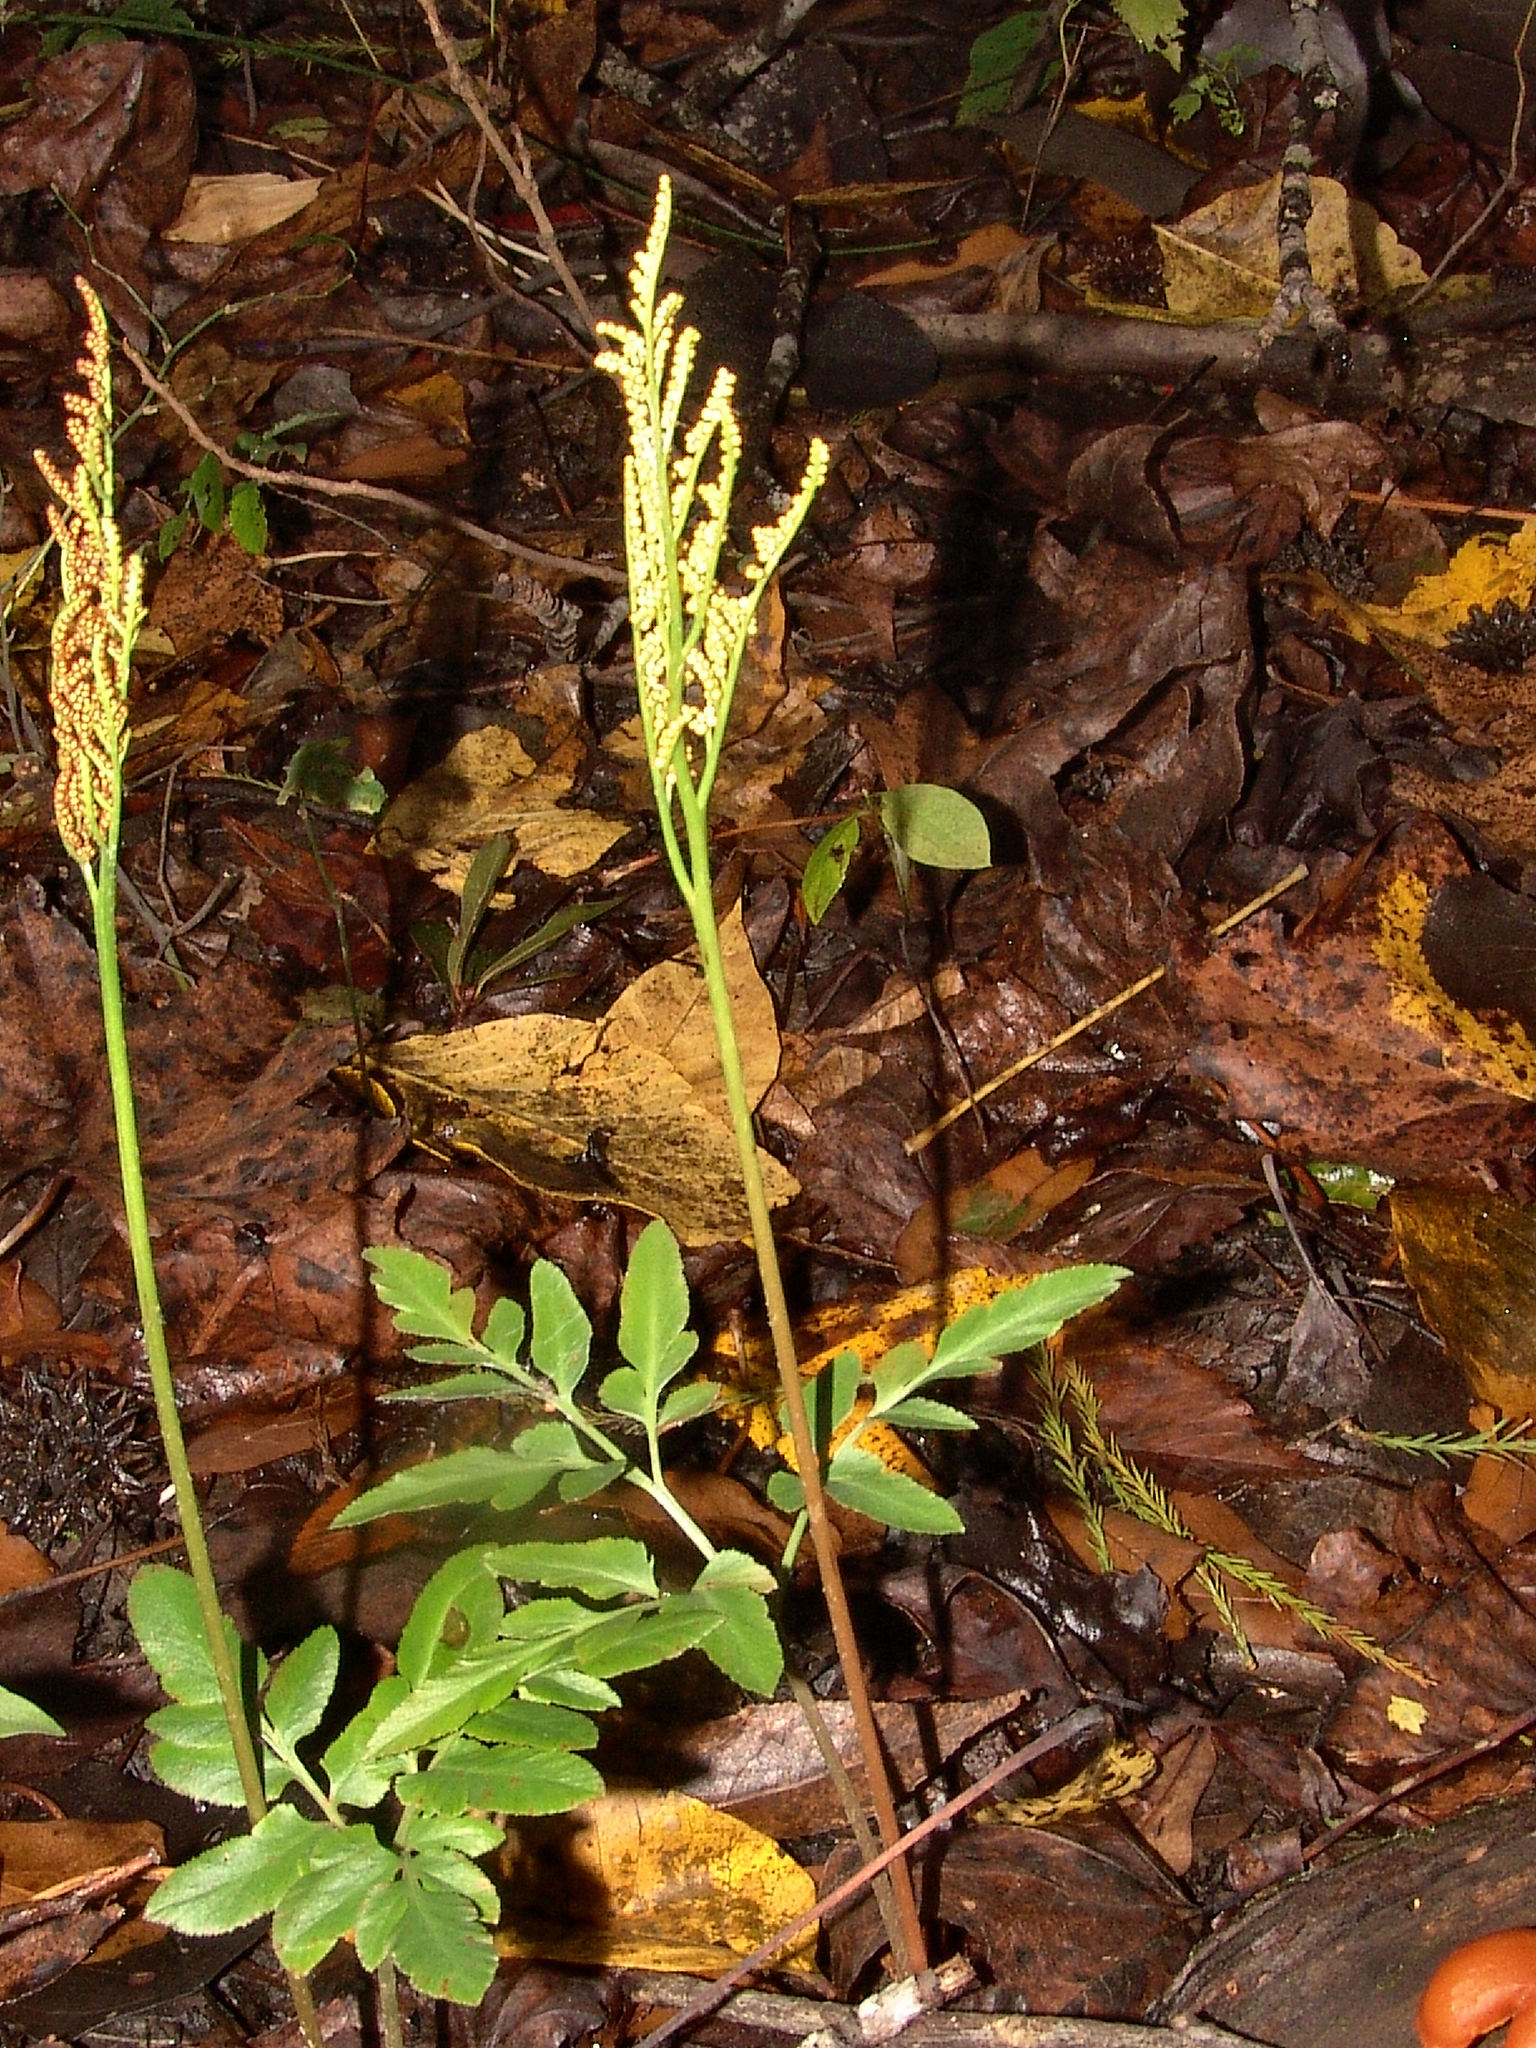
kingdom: Plantae
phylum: Tracheophyta
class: Polypodiopsida
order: Ophioglossales
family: Ophioglossaceae
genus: Sceptridium
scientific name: Sceptridium biternatum
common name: Sparse-lobed grapefern
